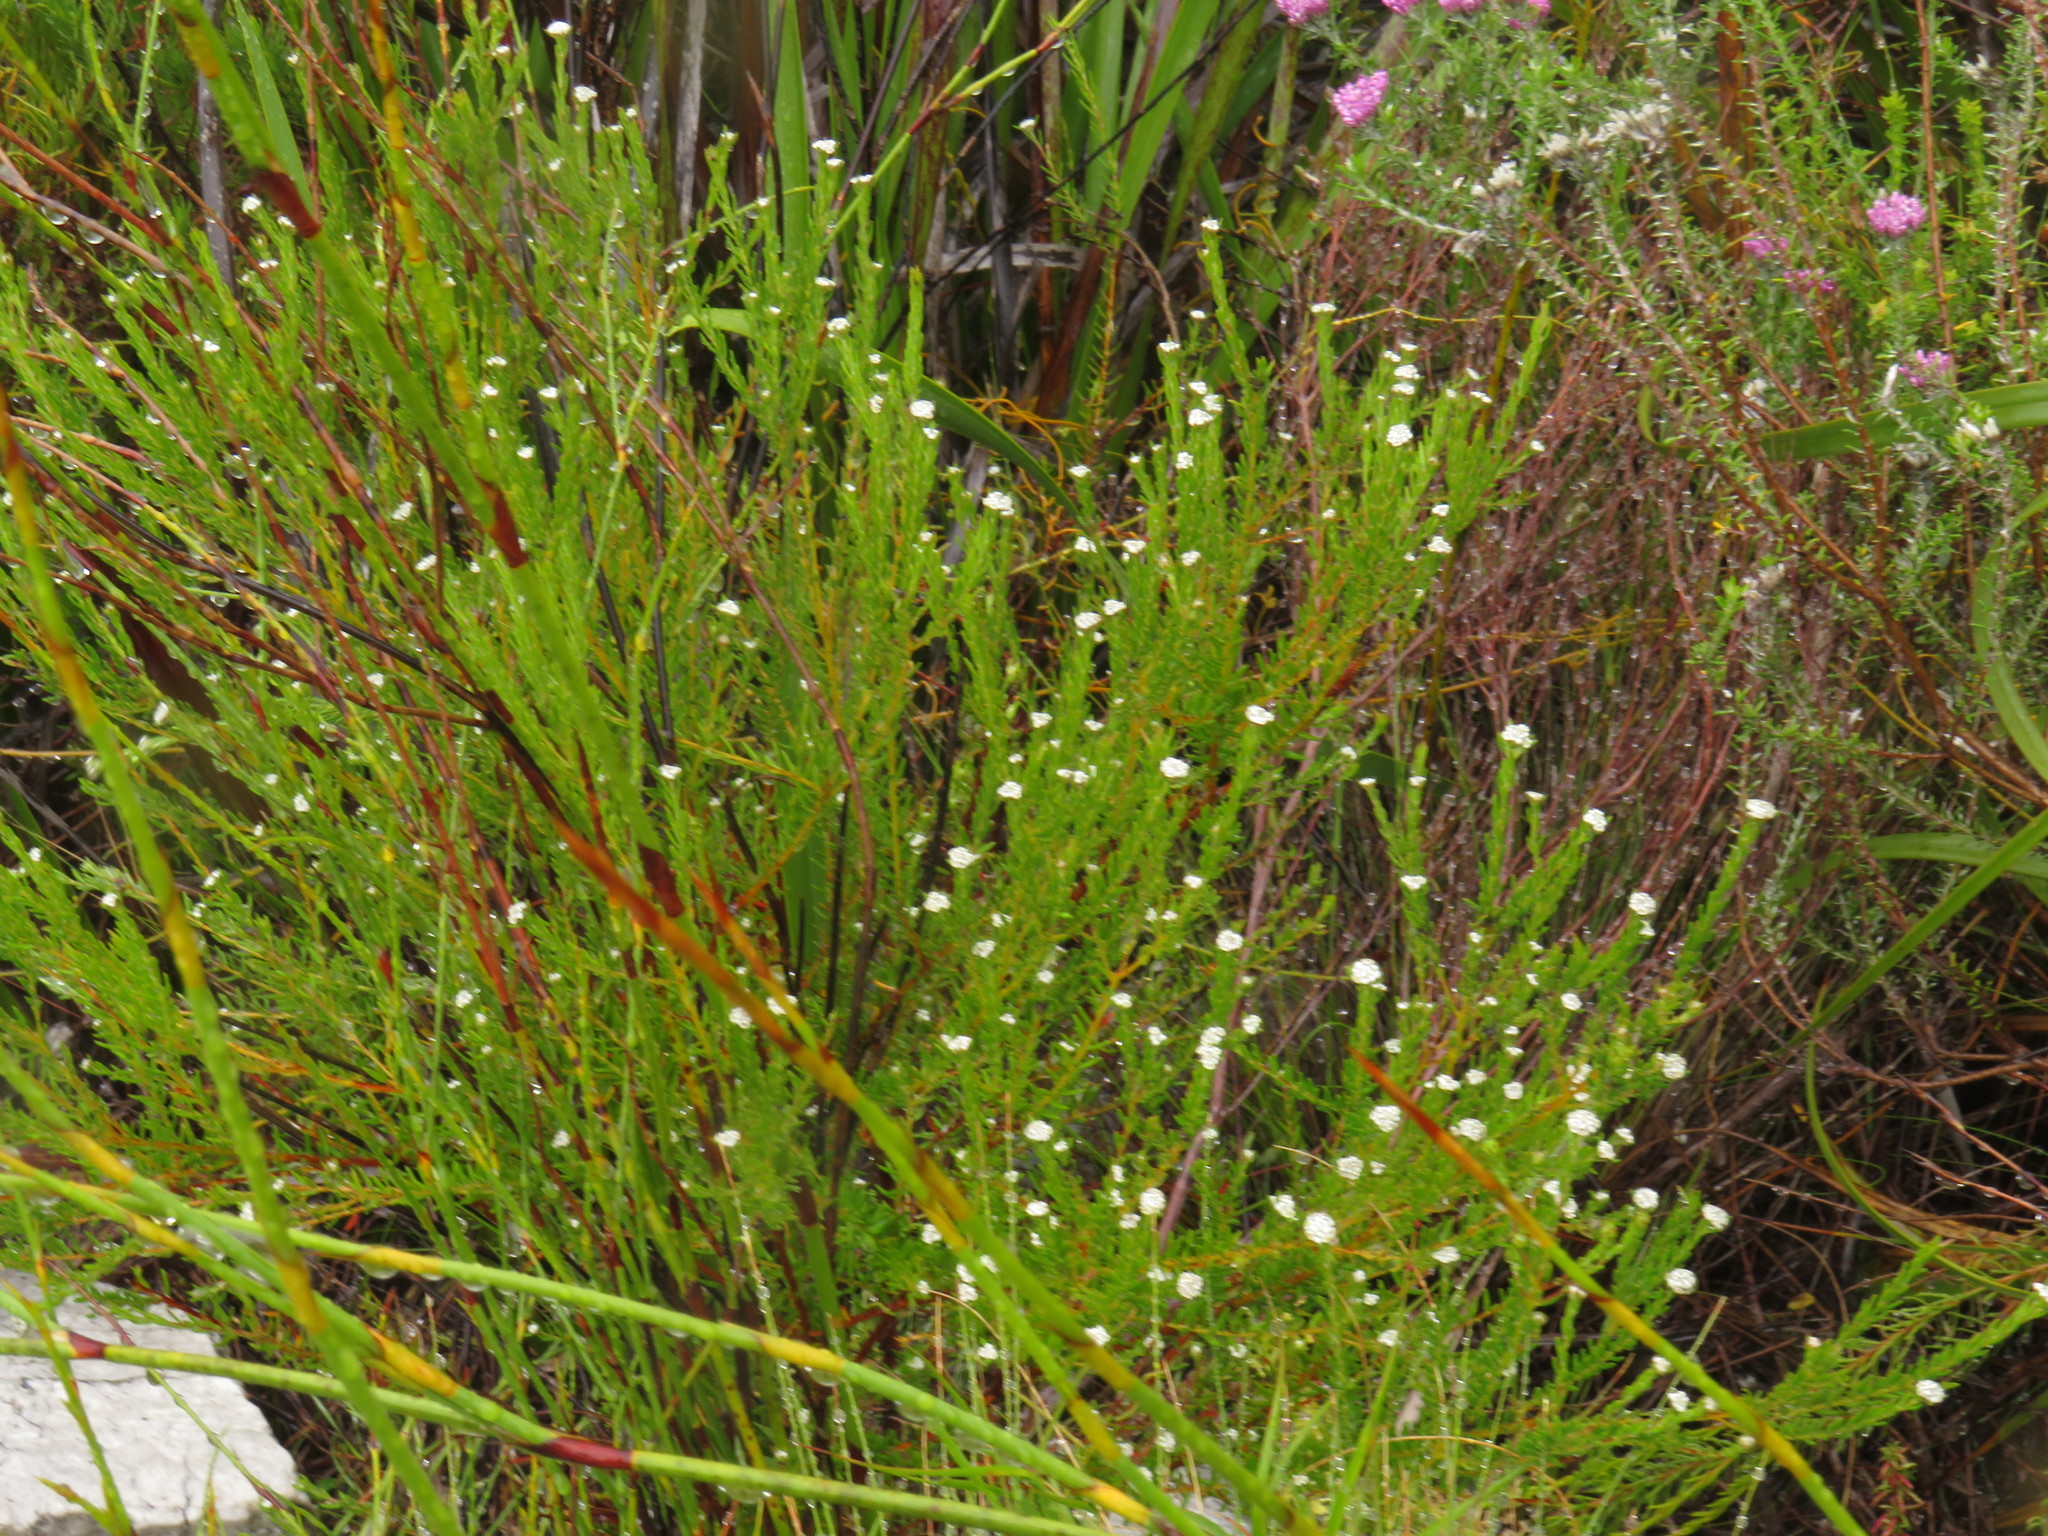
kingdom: Plantae
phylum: Tracheophyta
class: Magnoliopsida
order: Rosales
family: Rhamnaceae
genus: Phylica
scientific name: Phylica disticha
